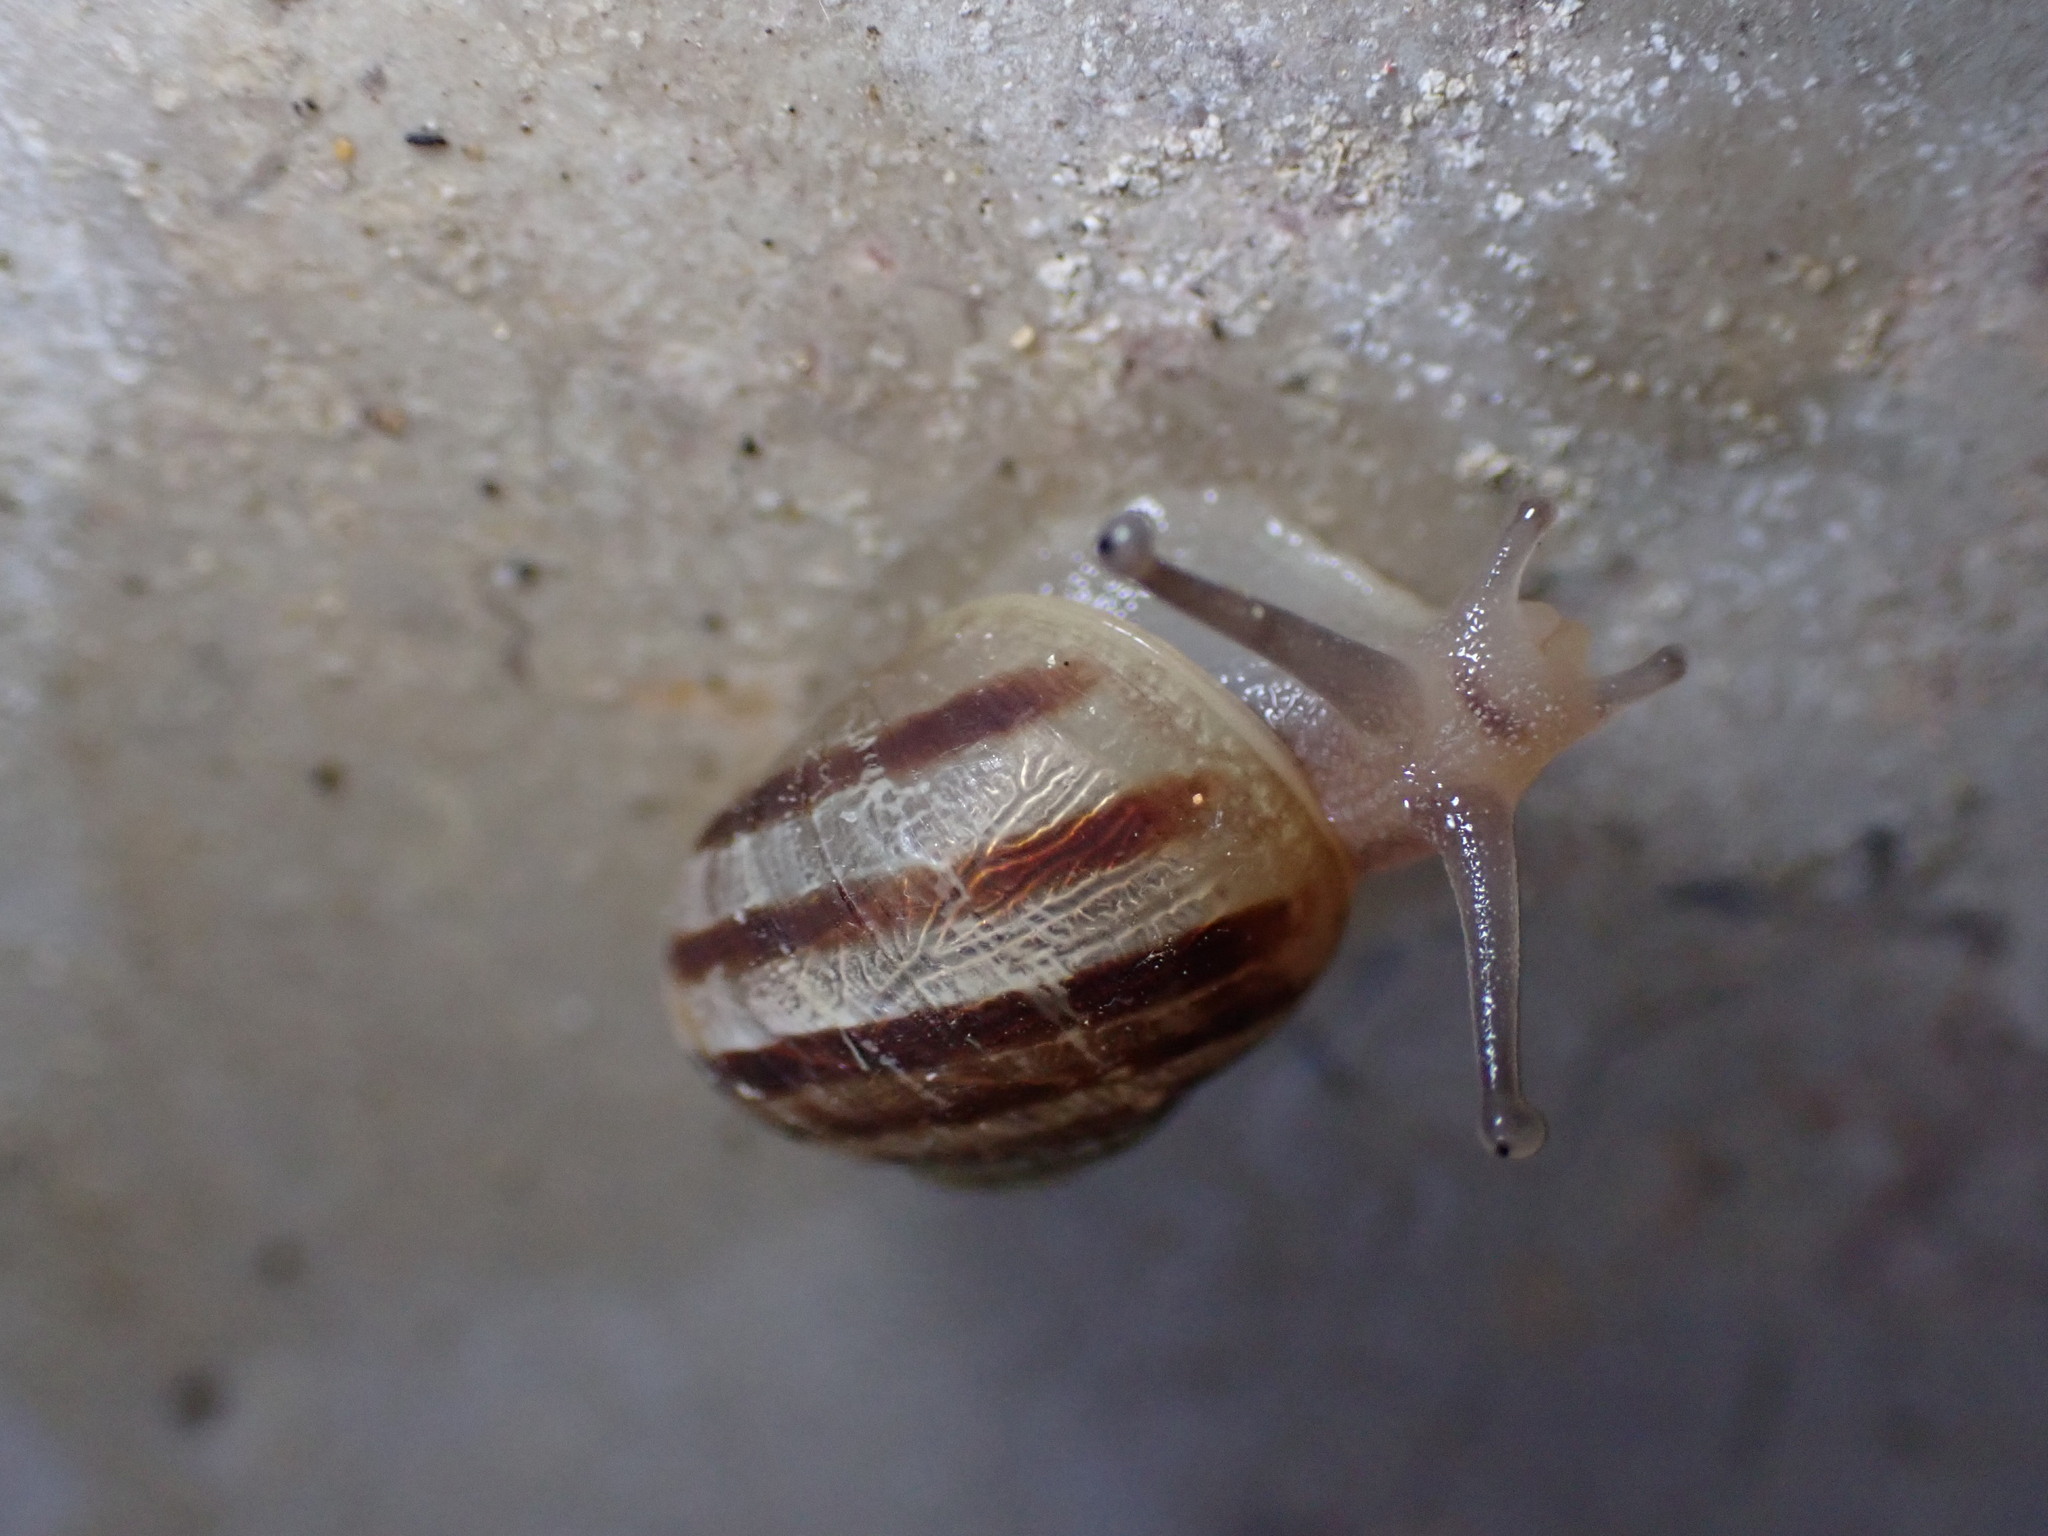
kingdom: Animalia
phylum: Mollusca
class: Gastropoda
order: Stylommatophora
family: Helicidae
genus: Cornu
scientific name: Cornu aspersum
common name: Brown garden snail
